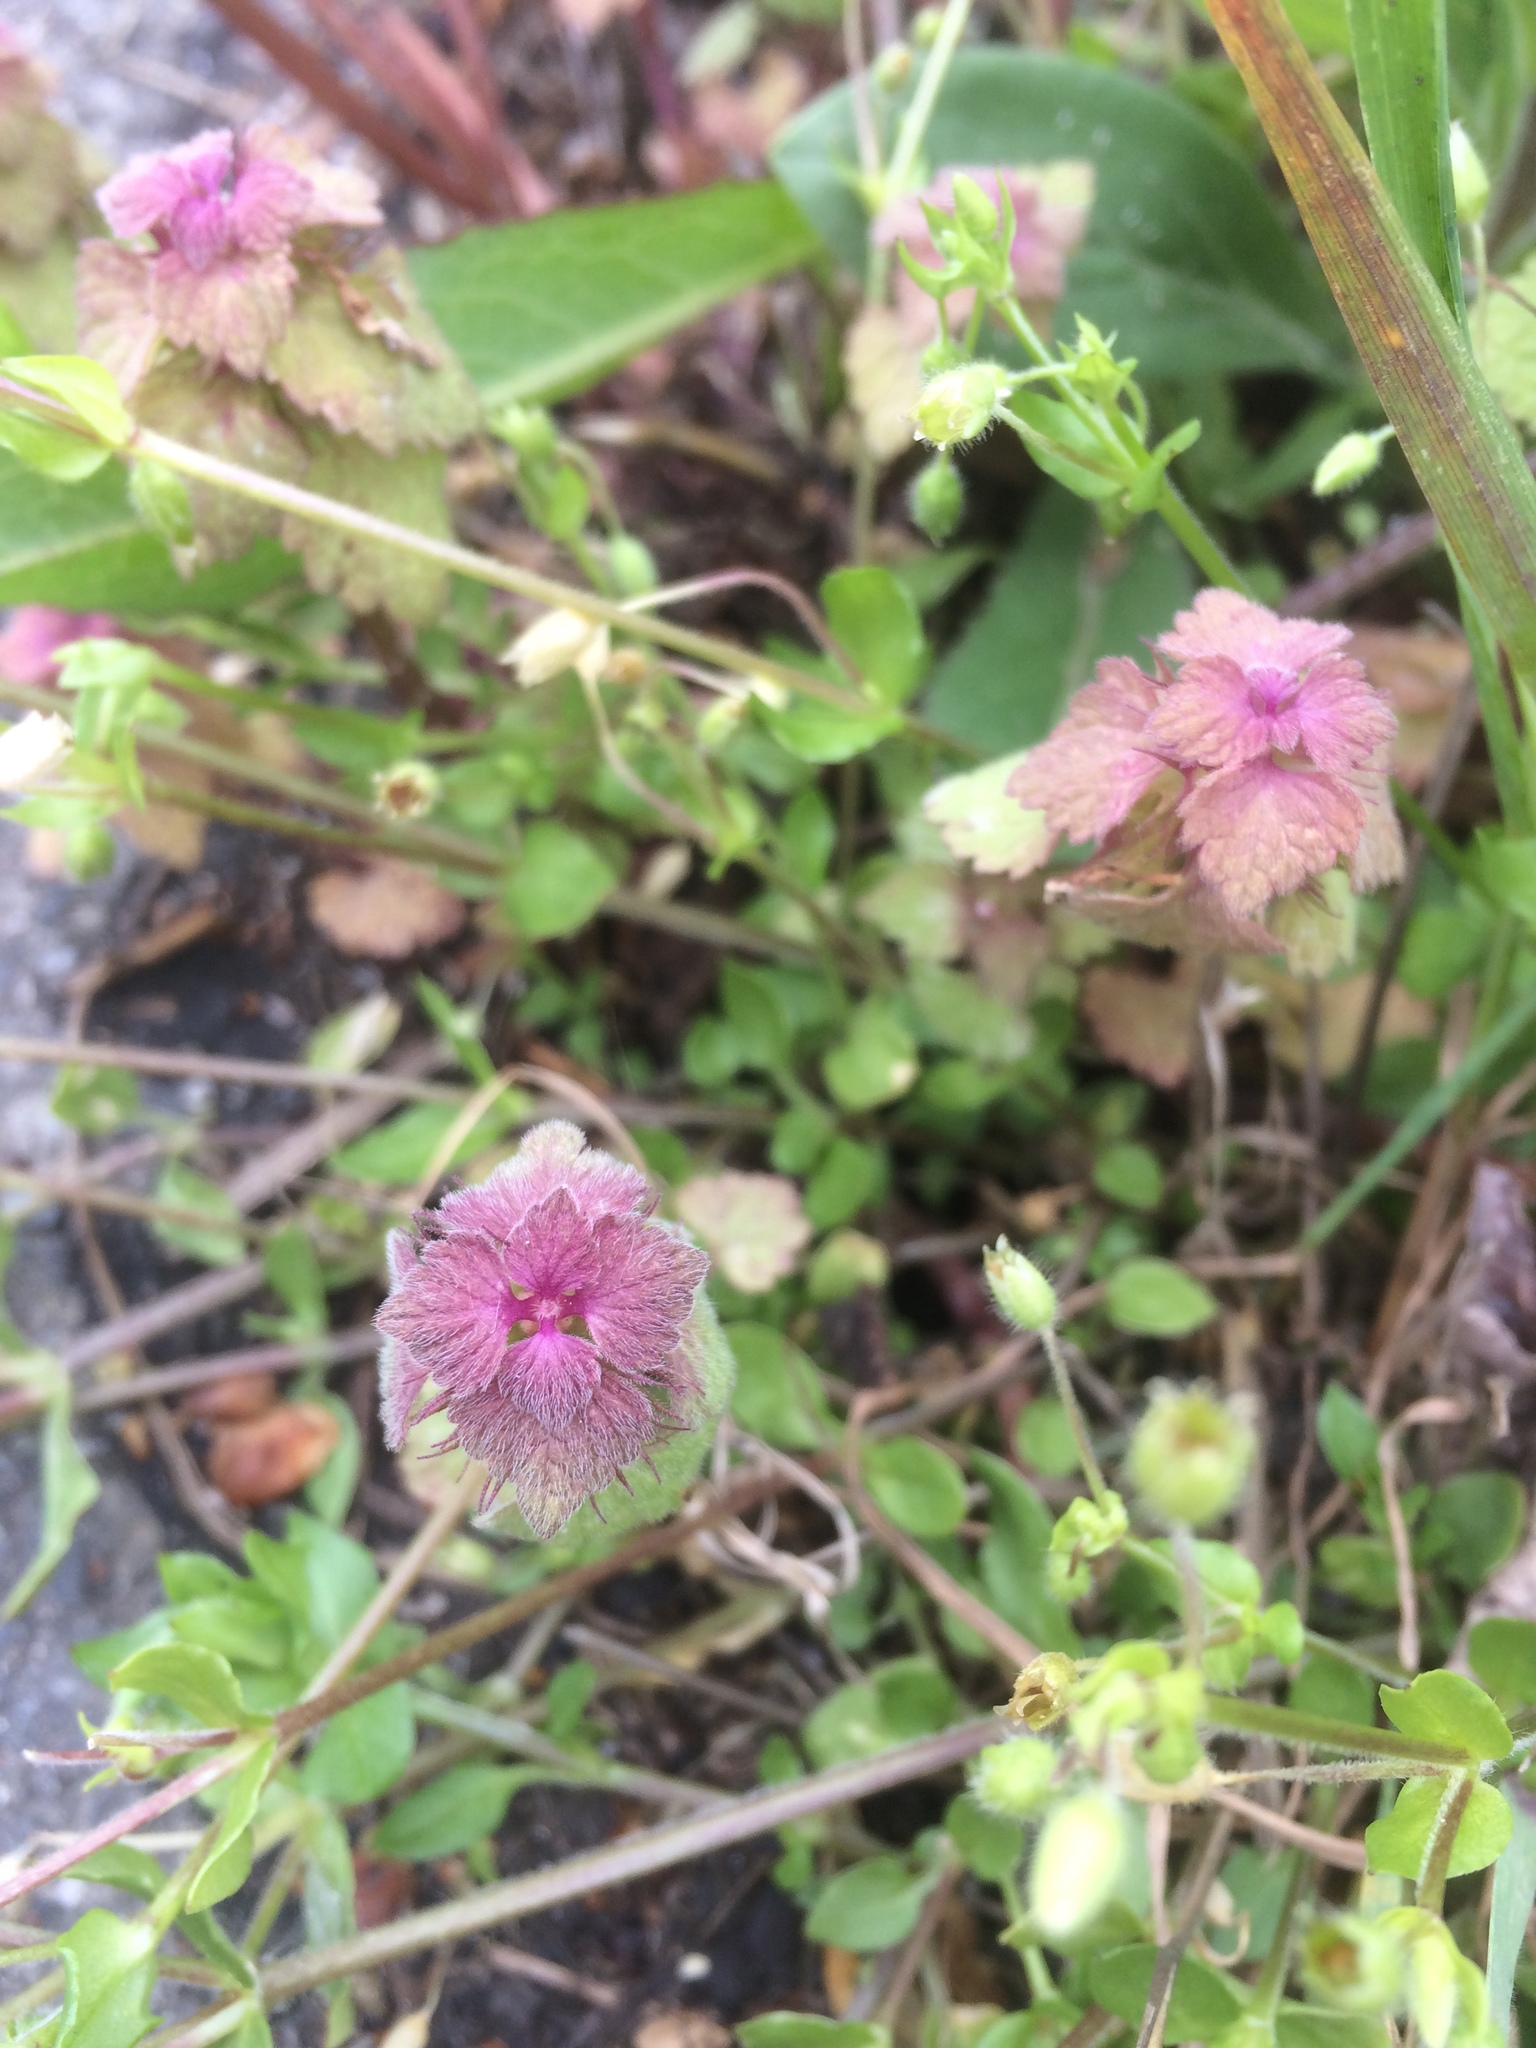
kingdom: Plantae
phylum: Tracheophyta
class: Magnoliopsida
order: Lamiales
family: Lamiaceae
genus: Lamium
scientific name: Lamium purpureum
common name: Red dead-nettle
